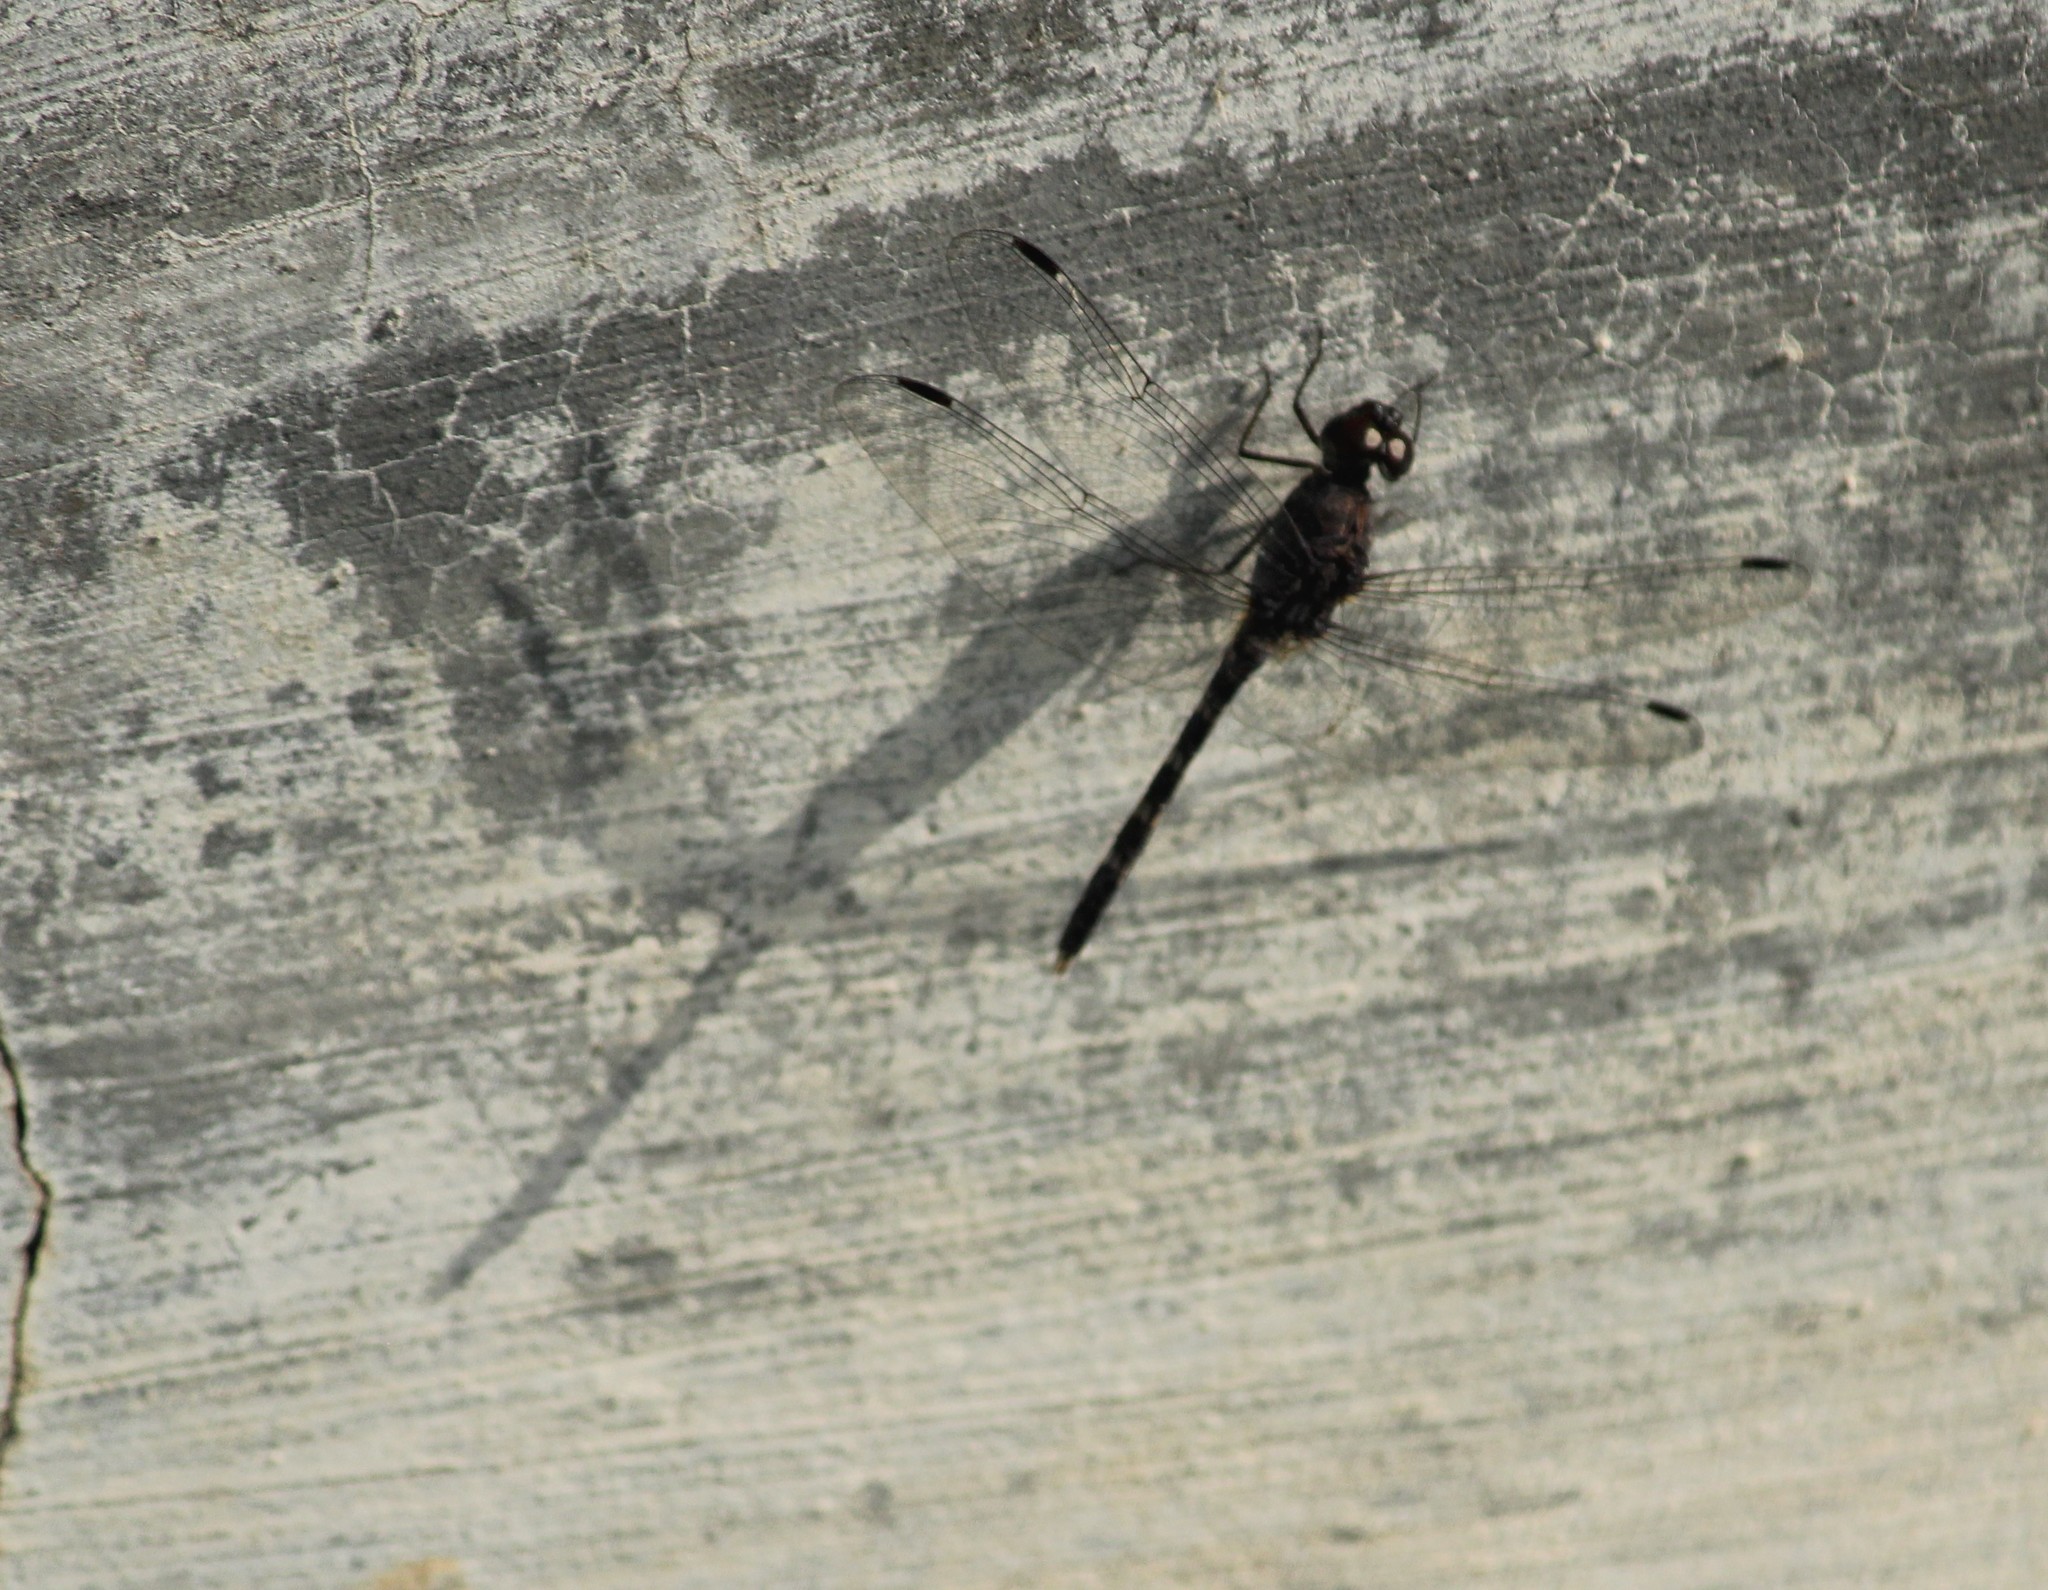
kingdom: Animalia
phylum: Arthropoda
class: Insecta
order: Odonata
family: Libellulidae
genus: Bradinopyga
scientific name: Bradinopyga geminata
